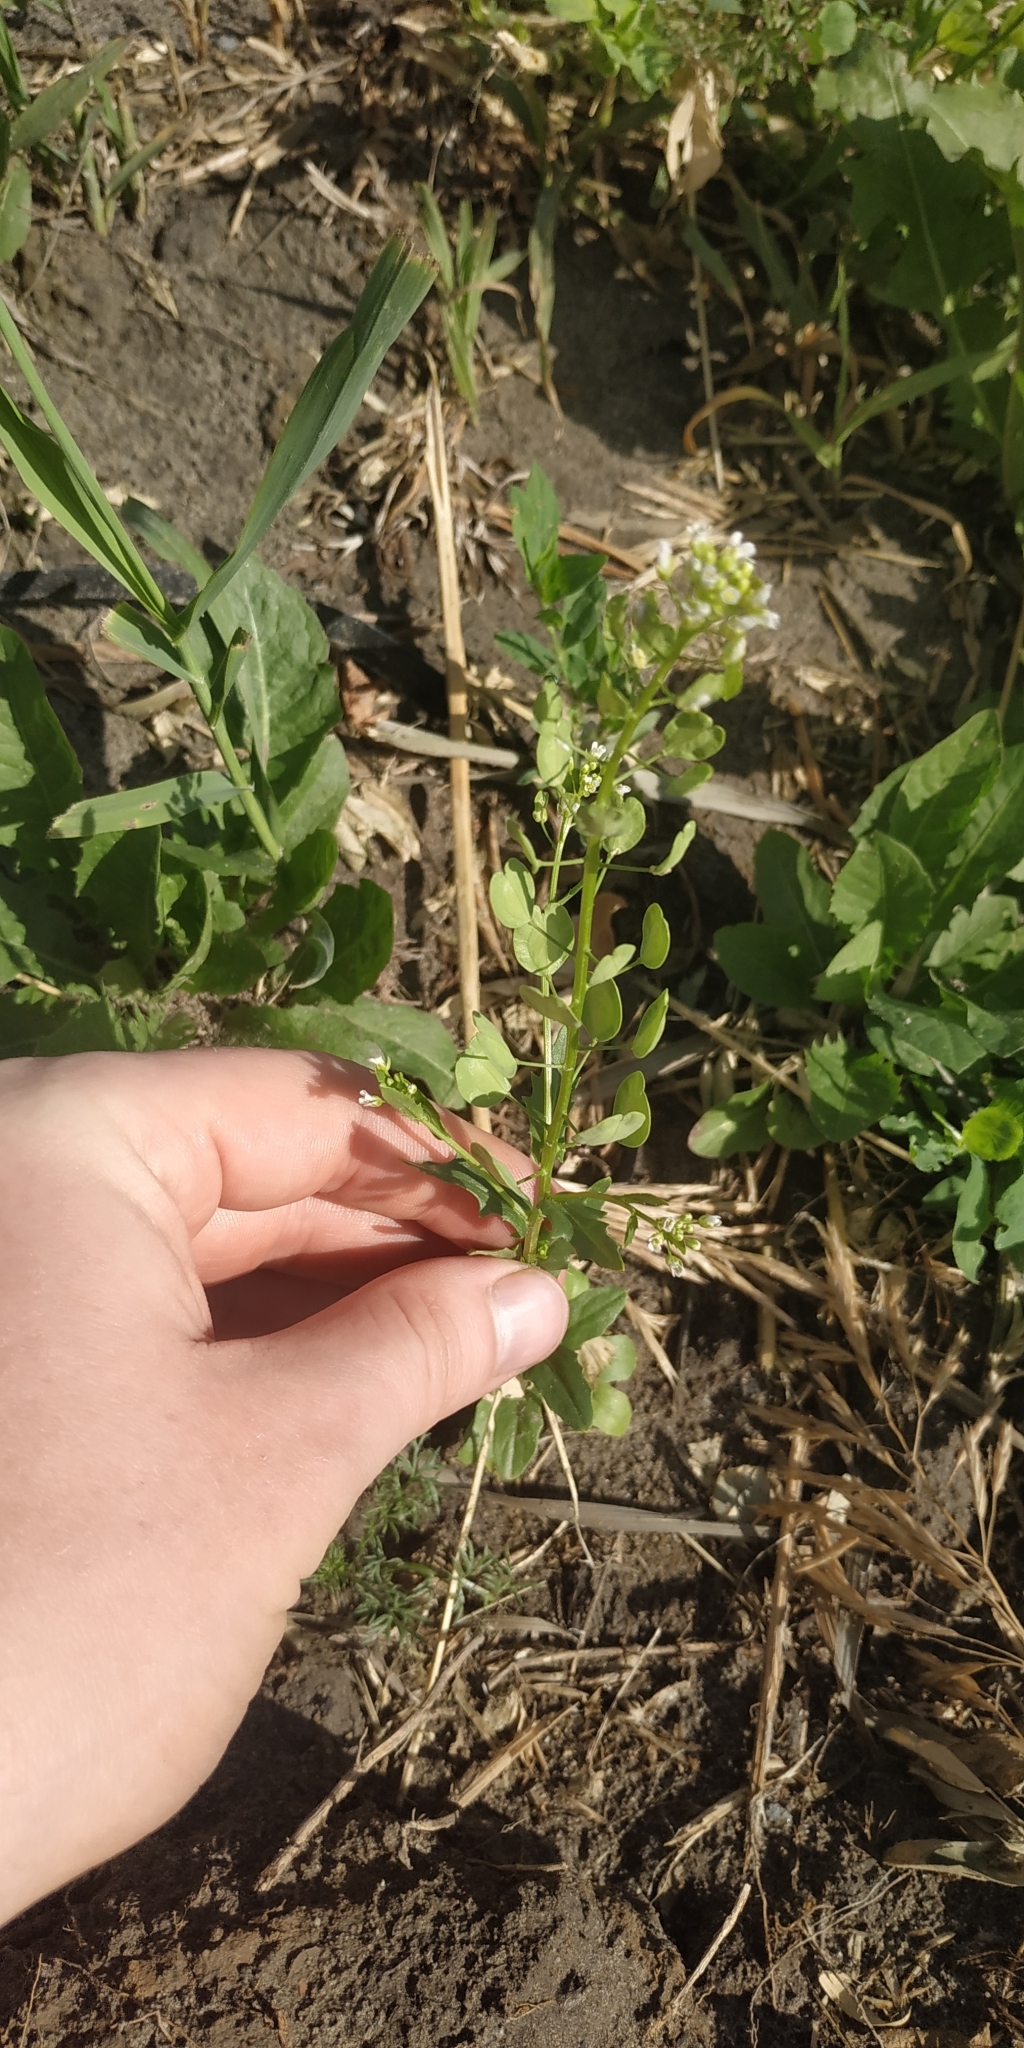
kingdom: Plantae
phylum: Tracheophyta
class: Magnoliopsida
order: Brassicales
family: Brassicaceae
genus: Thlaspi
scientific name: Thlaspi arvense
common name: Field pennycress
